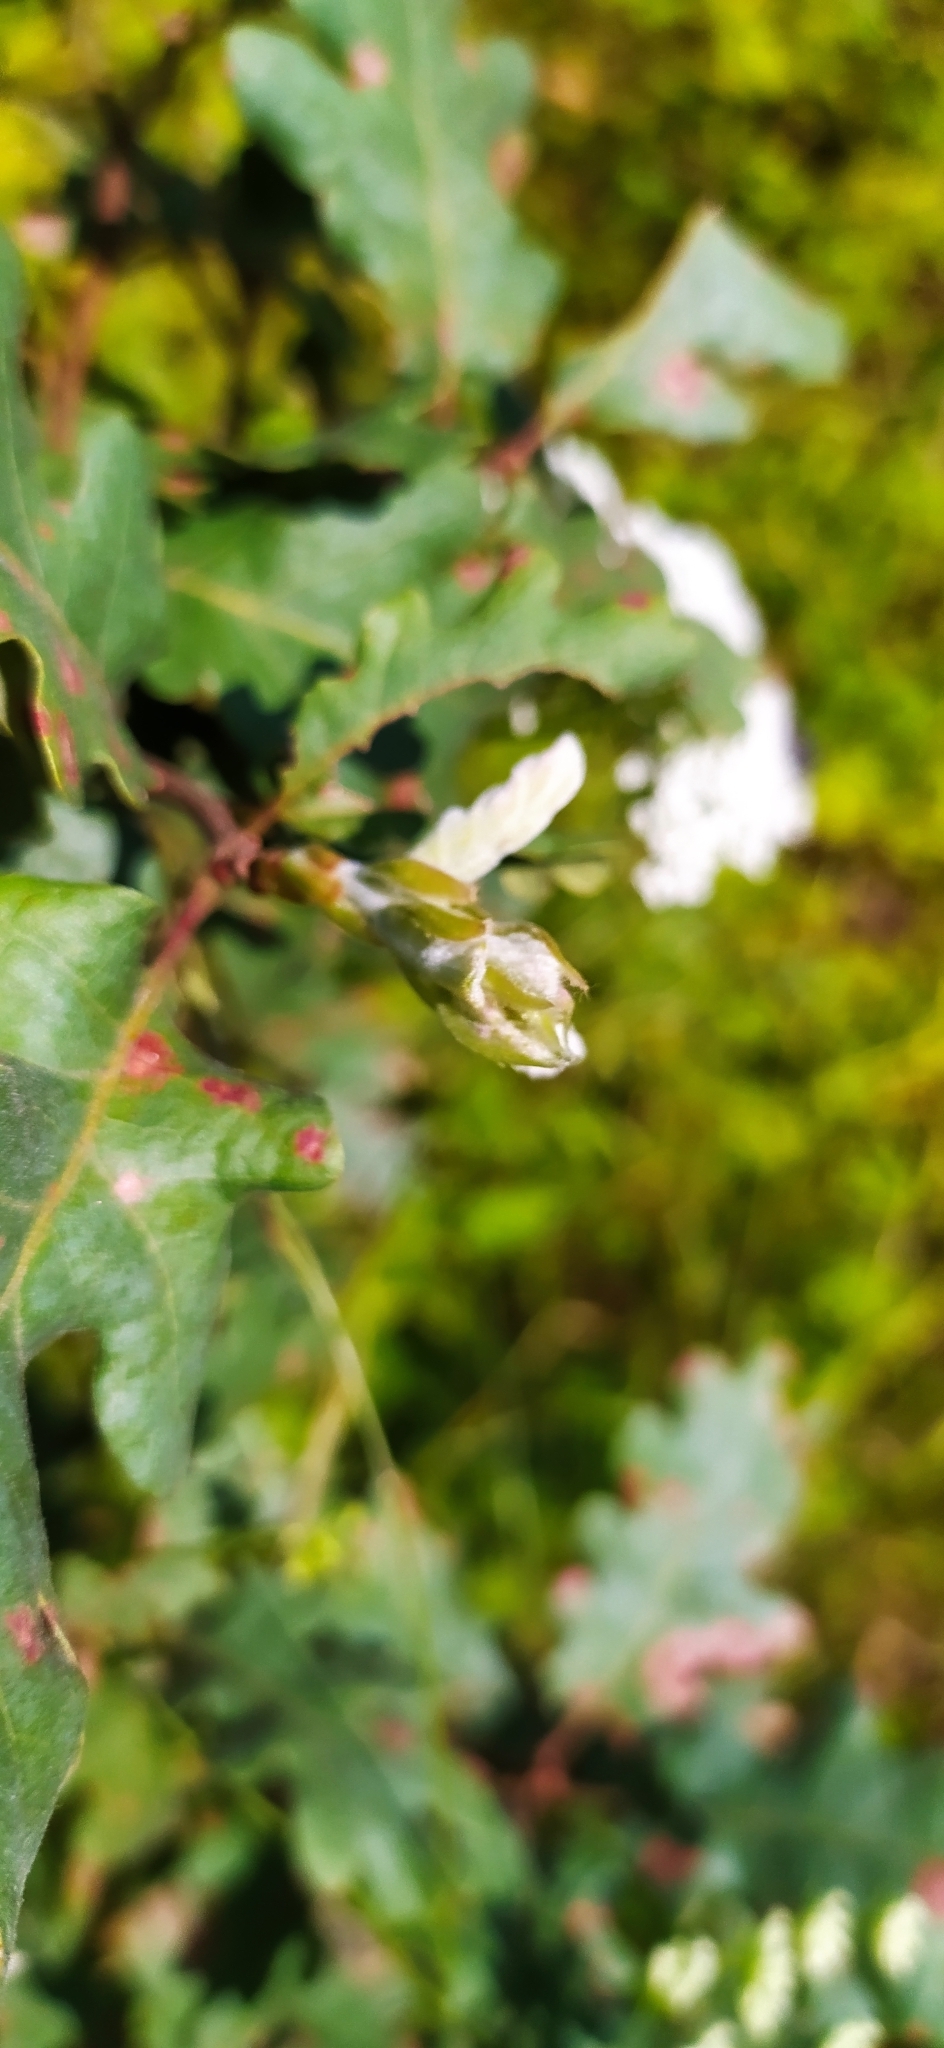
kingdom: Plantae
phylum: Tracheophyta
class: Magnoliopsida
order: Fagales
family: Fagaceae
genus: Quercus
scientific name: Quercus pubescens
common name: Downy oak
